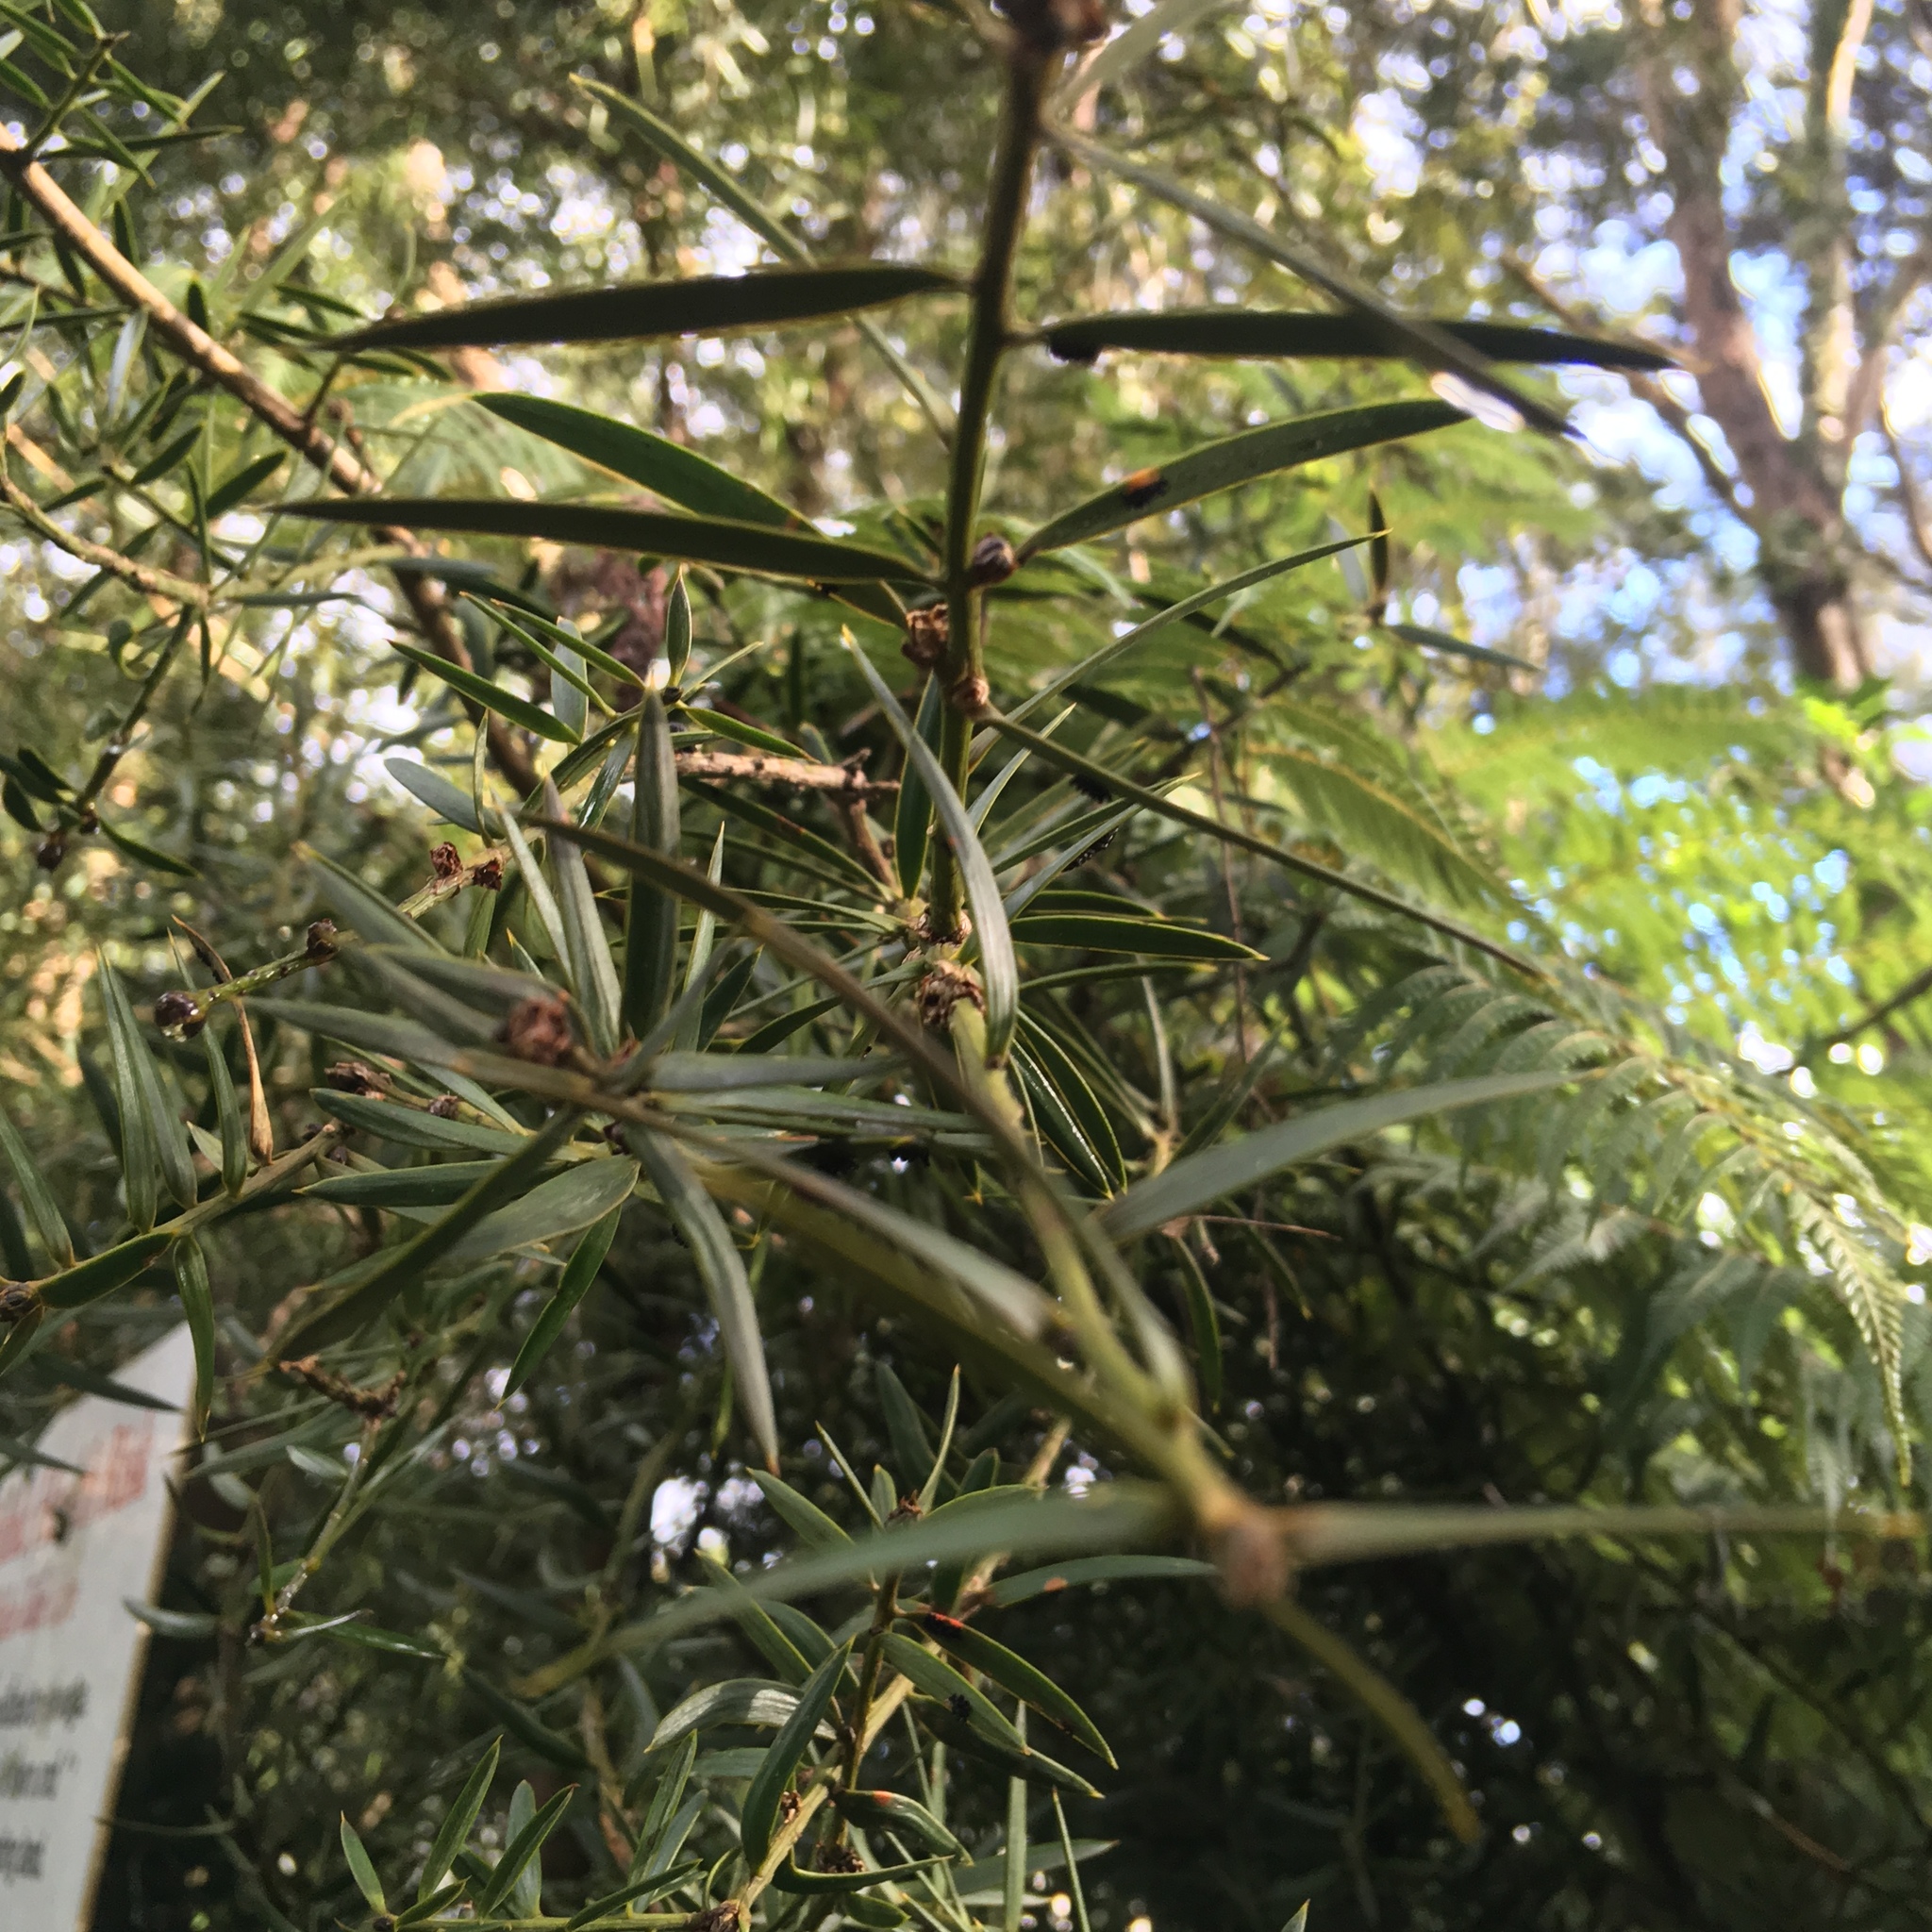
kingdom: Plantae
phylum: Tracheophyta
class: Pinopsida
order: Pinales
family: Podocarpaceae
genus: Podocarpus
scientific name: Podocarpus totara
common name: Totara
